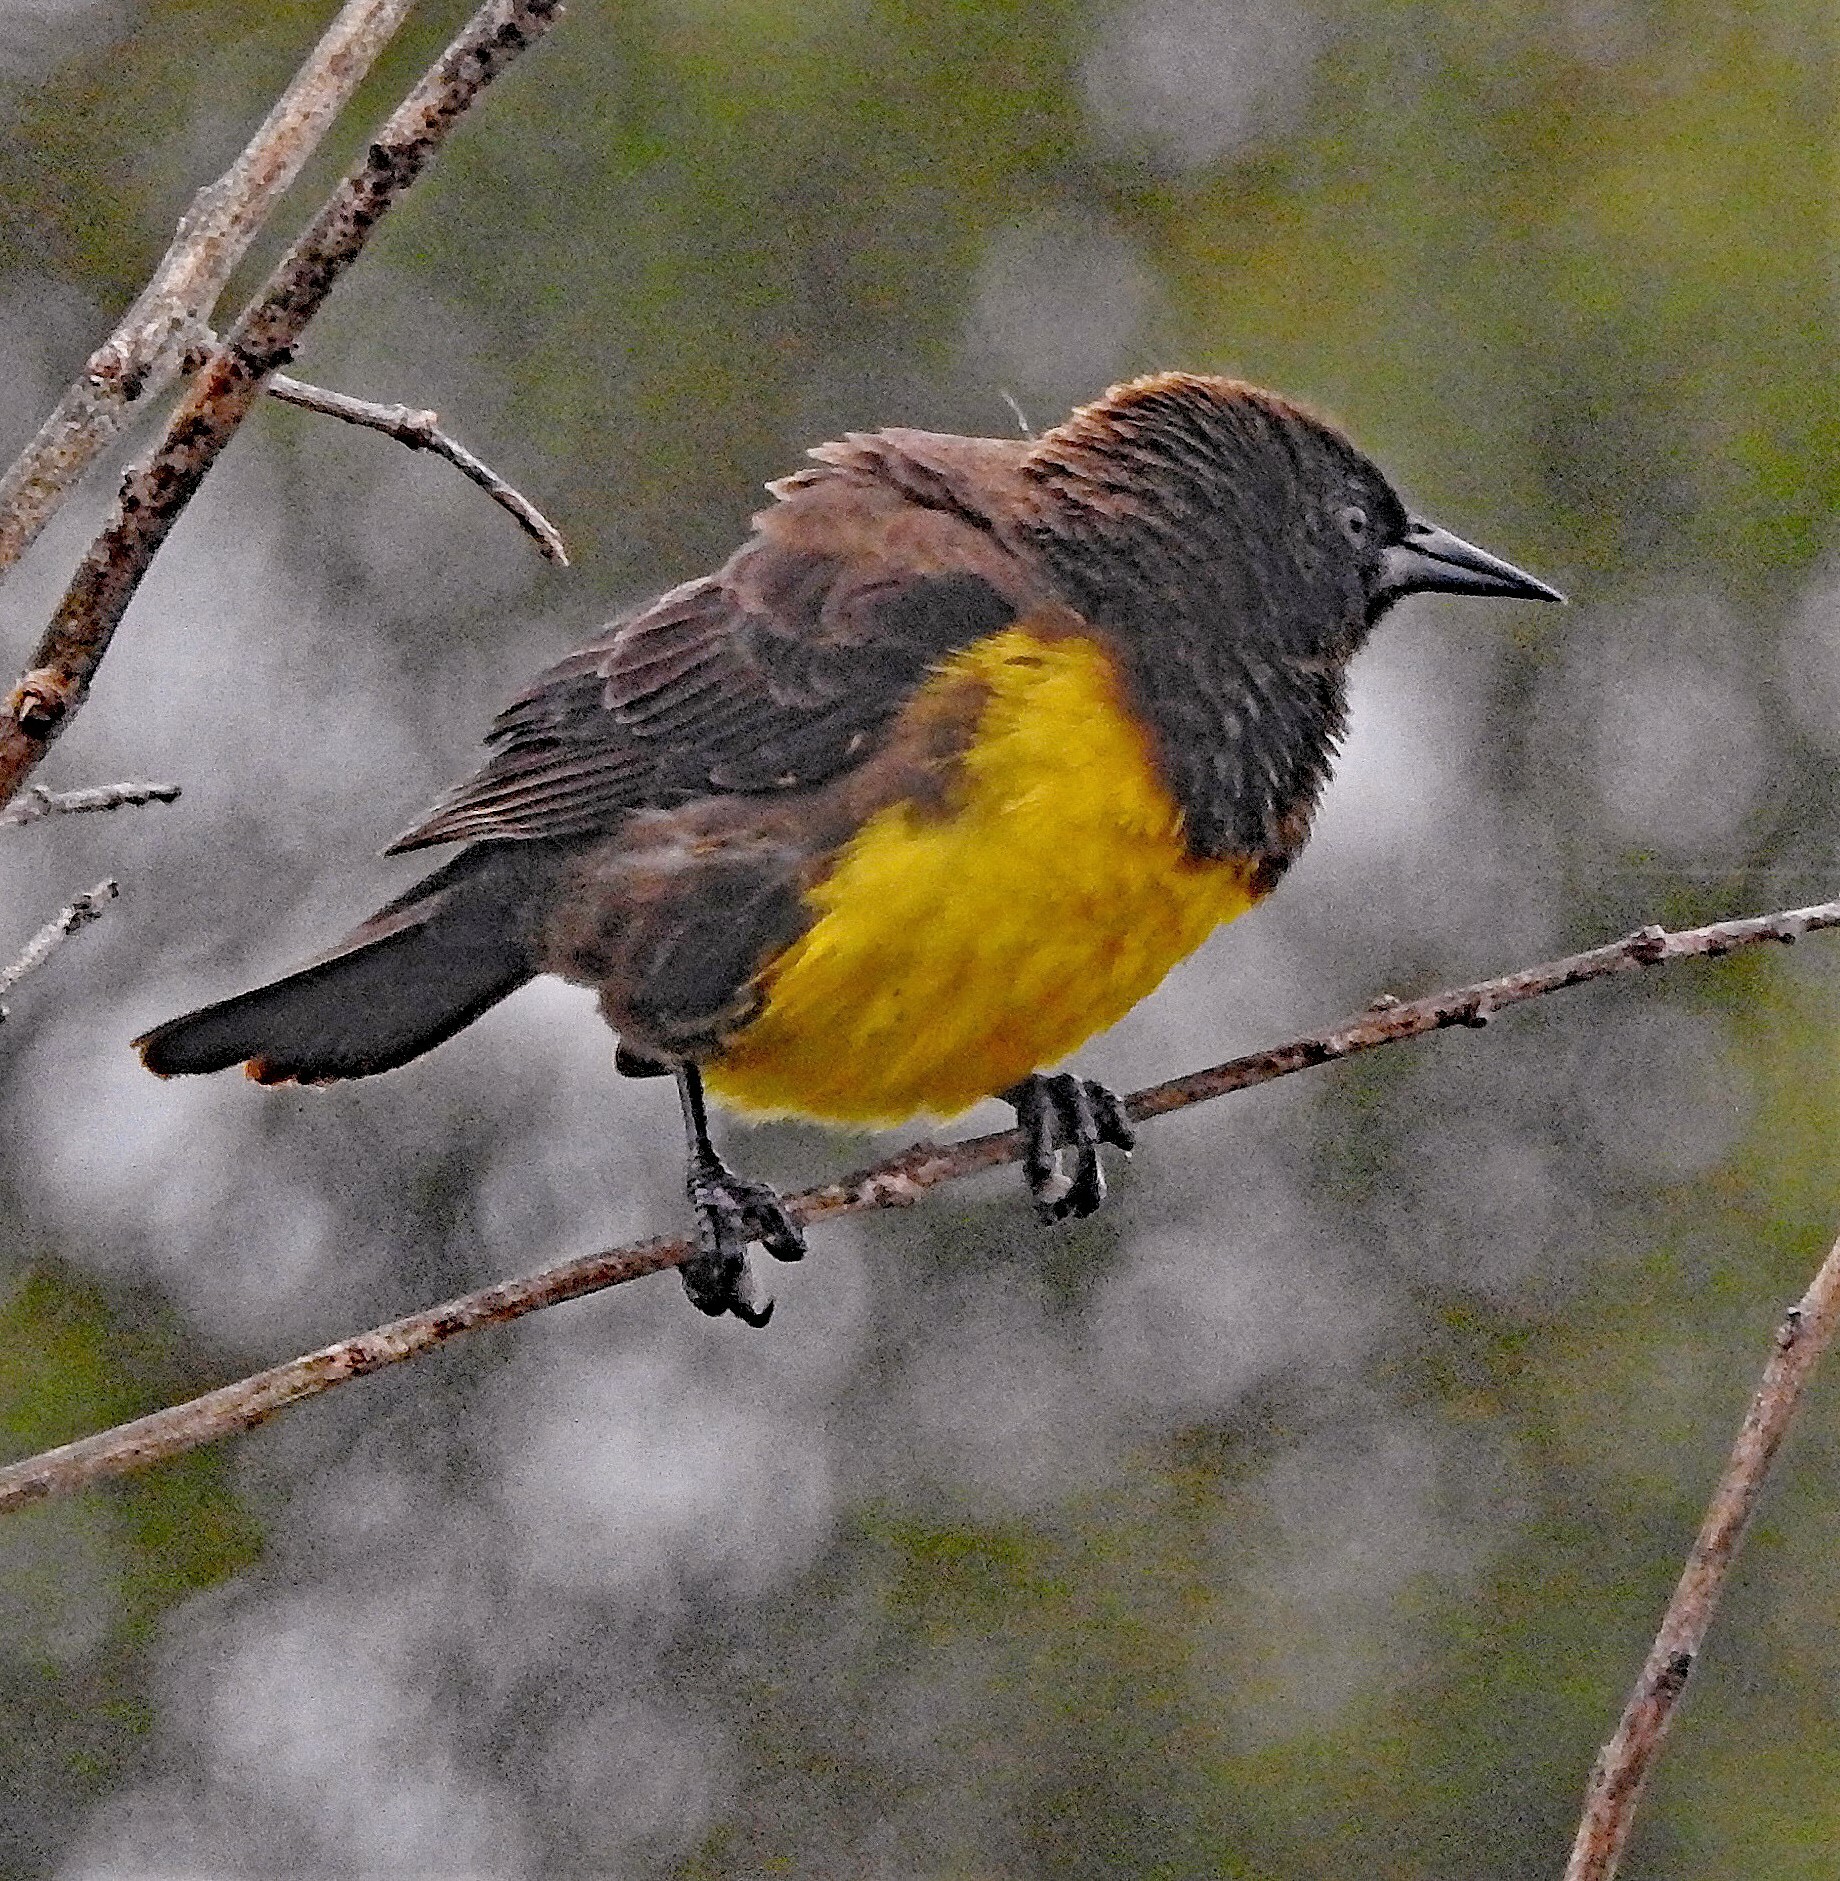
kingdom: Animalia
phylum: Chordata
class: Aves
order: Passeriformes
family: Icteridae
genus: Pseudoleistes
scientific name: Pseudoleistes virescens
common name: Brown-and-yellow marshbird
